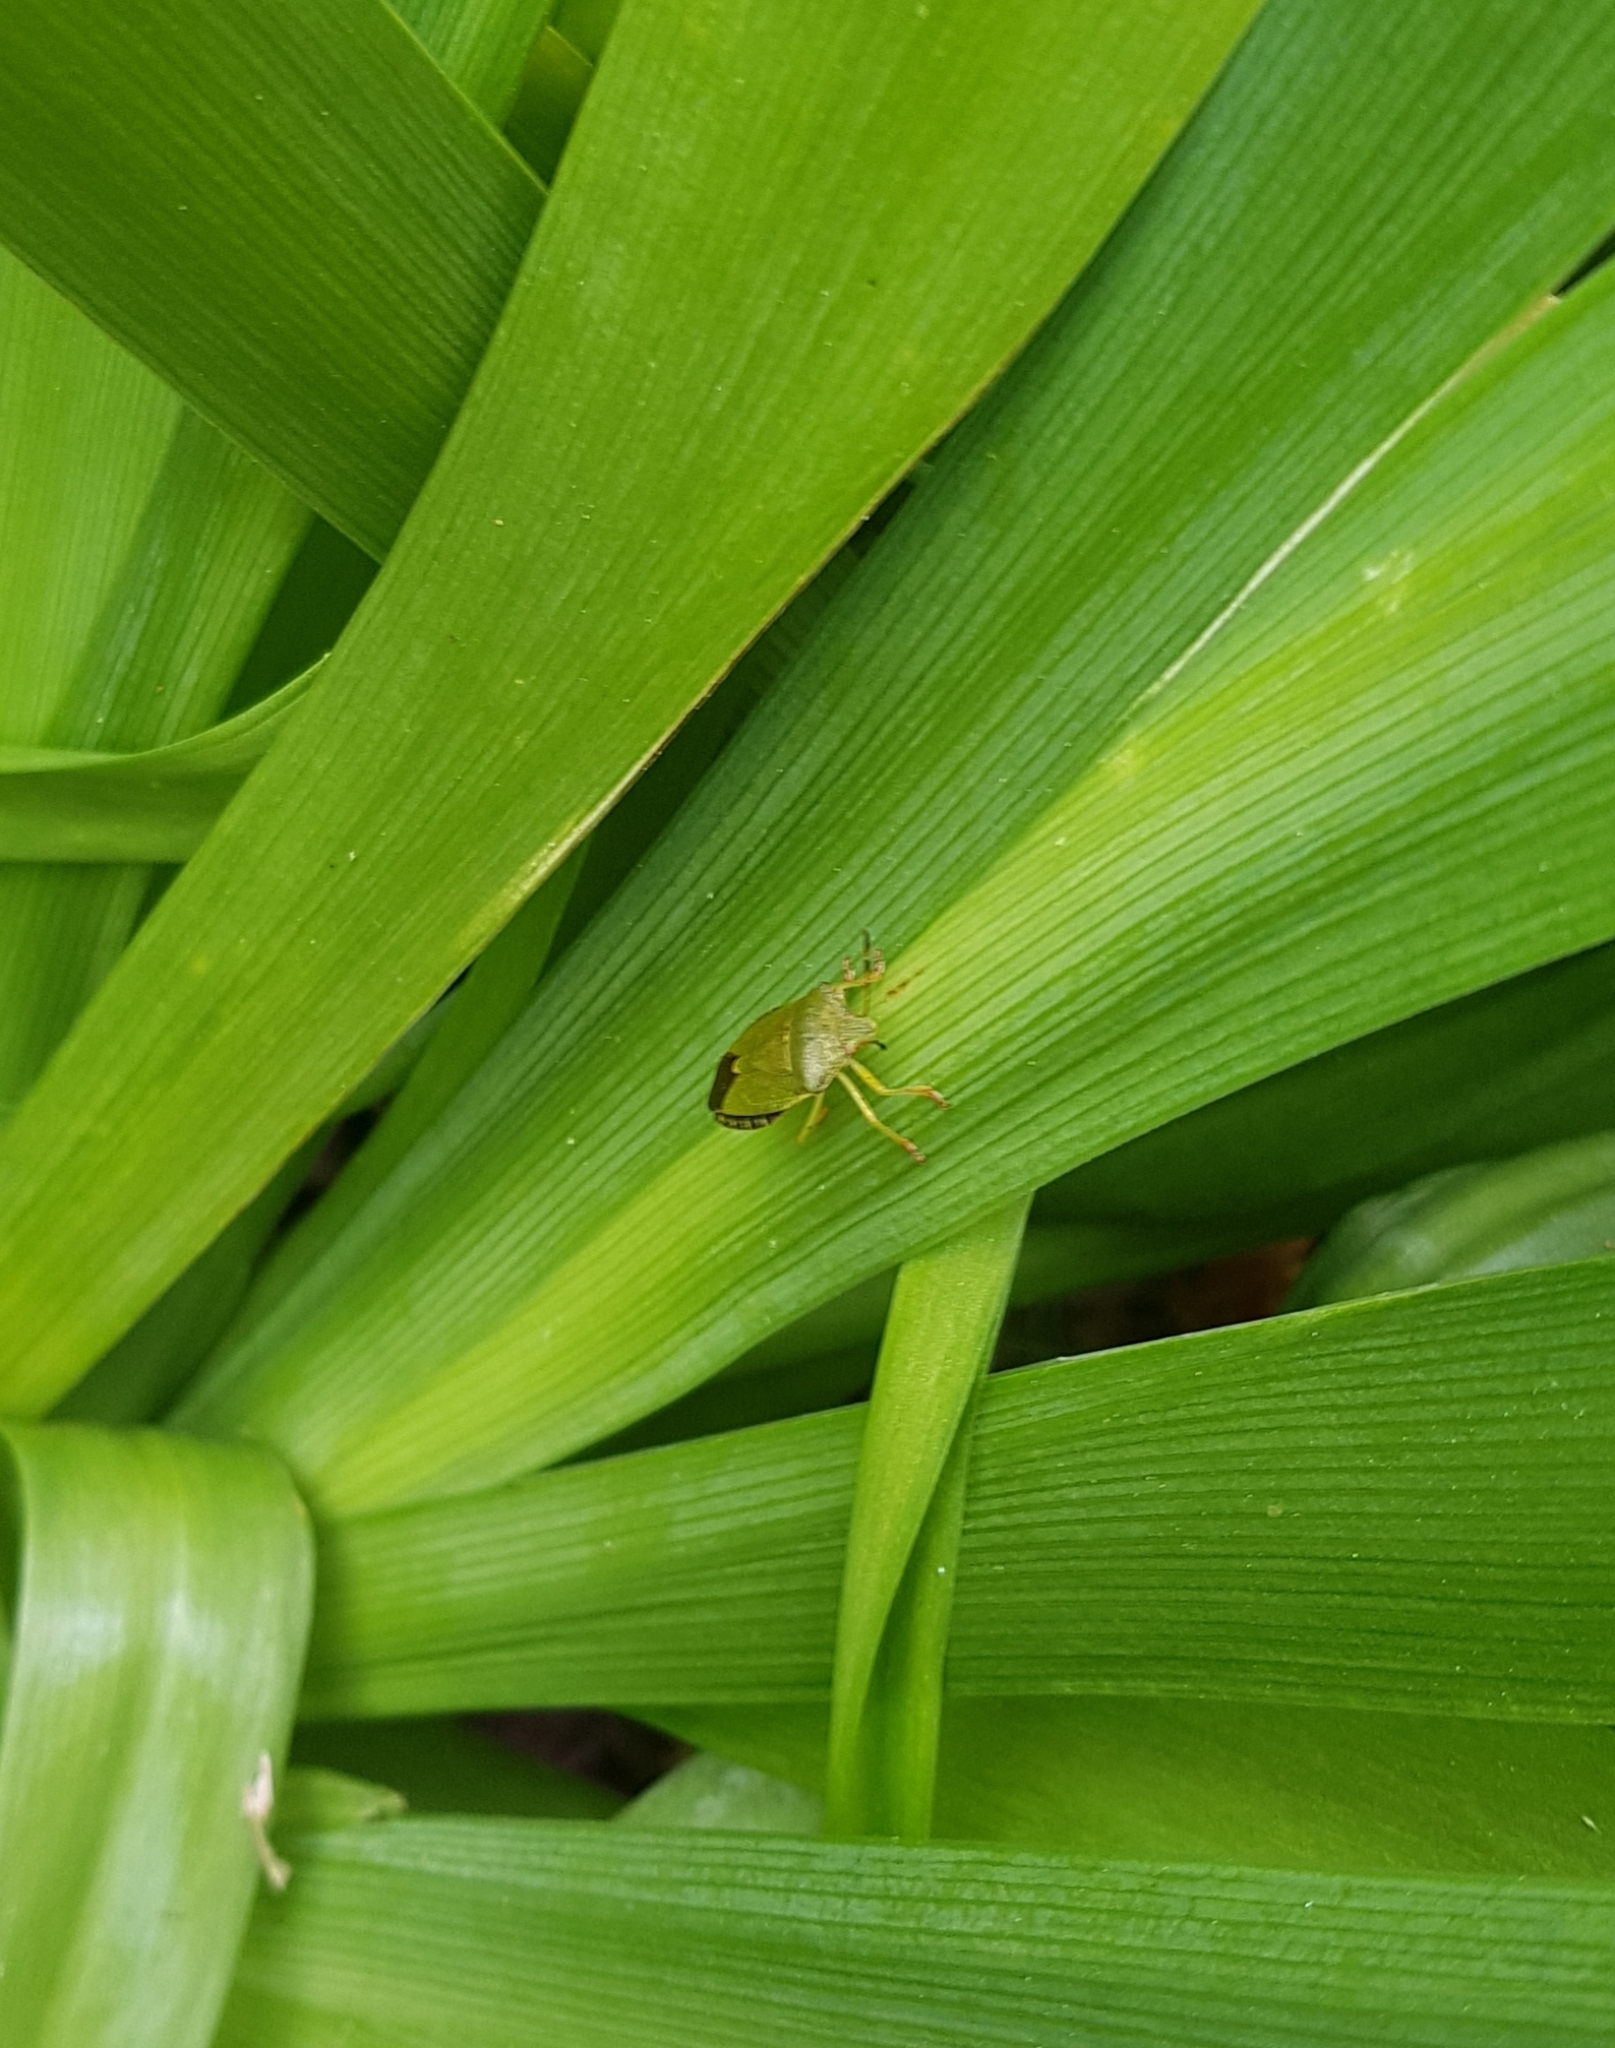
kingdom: Animalia
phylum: Arthropoda
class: Insecta
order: Hemiptera
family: Pentatomidae
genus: Palomena
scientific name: Palomena prasina
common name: Green shieldbug
